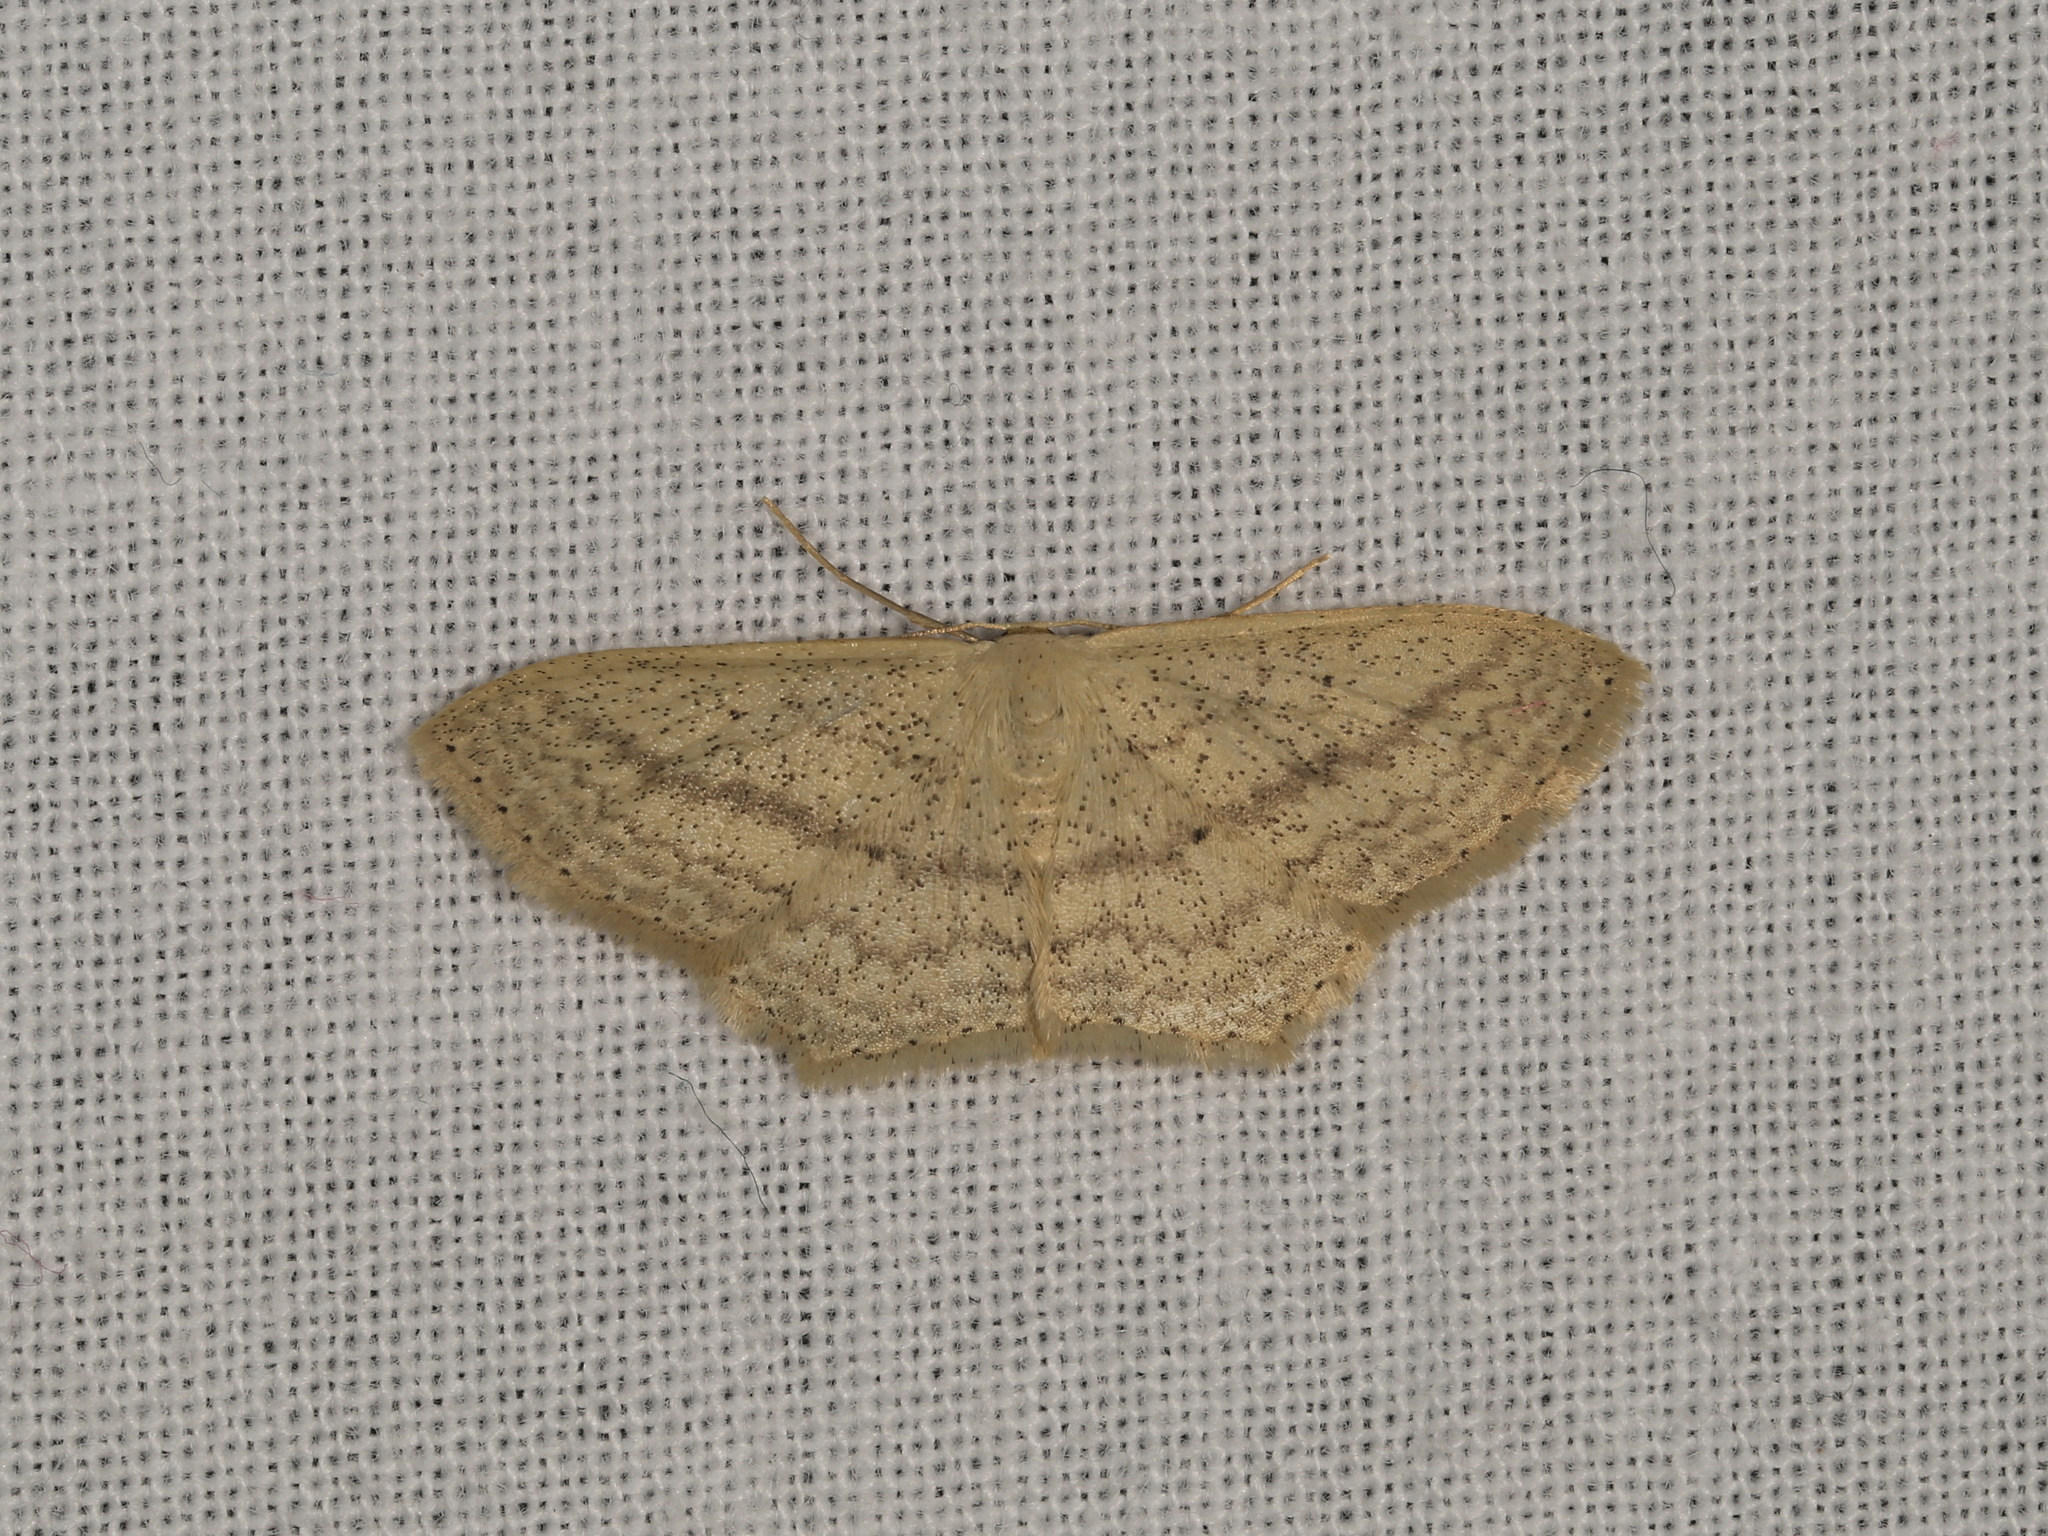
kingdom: Animalia
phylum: Arthropoda
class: Insecta
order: Lepidoptera
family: Geometridae
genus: Scopula
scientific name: Scopula perlata
